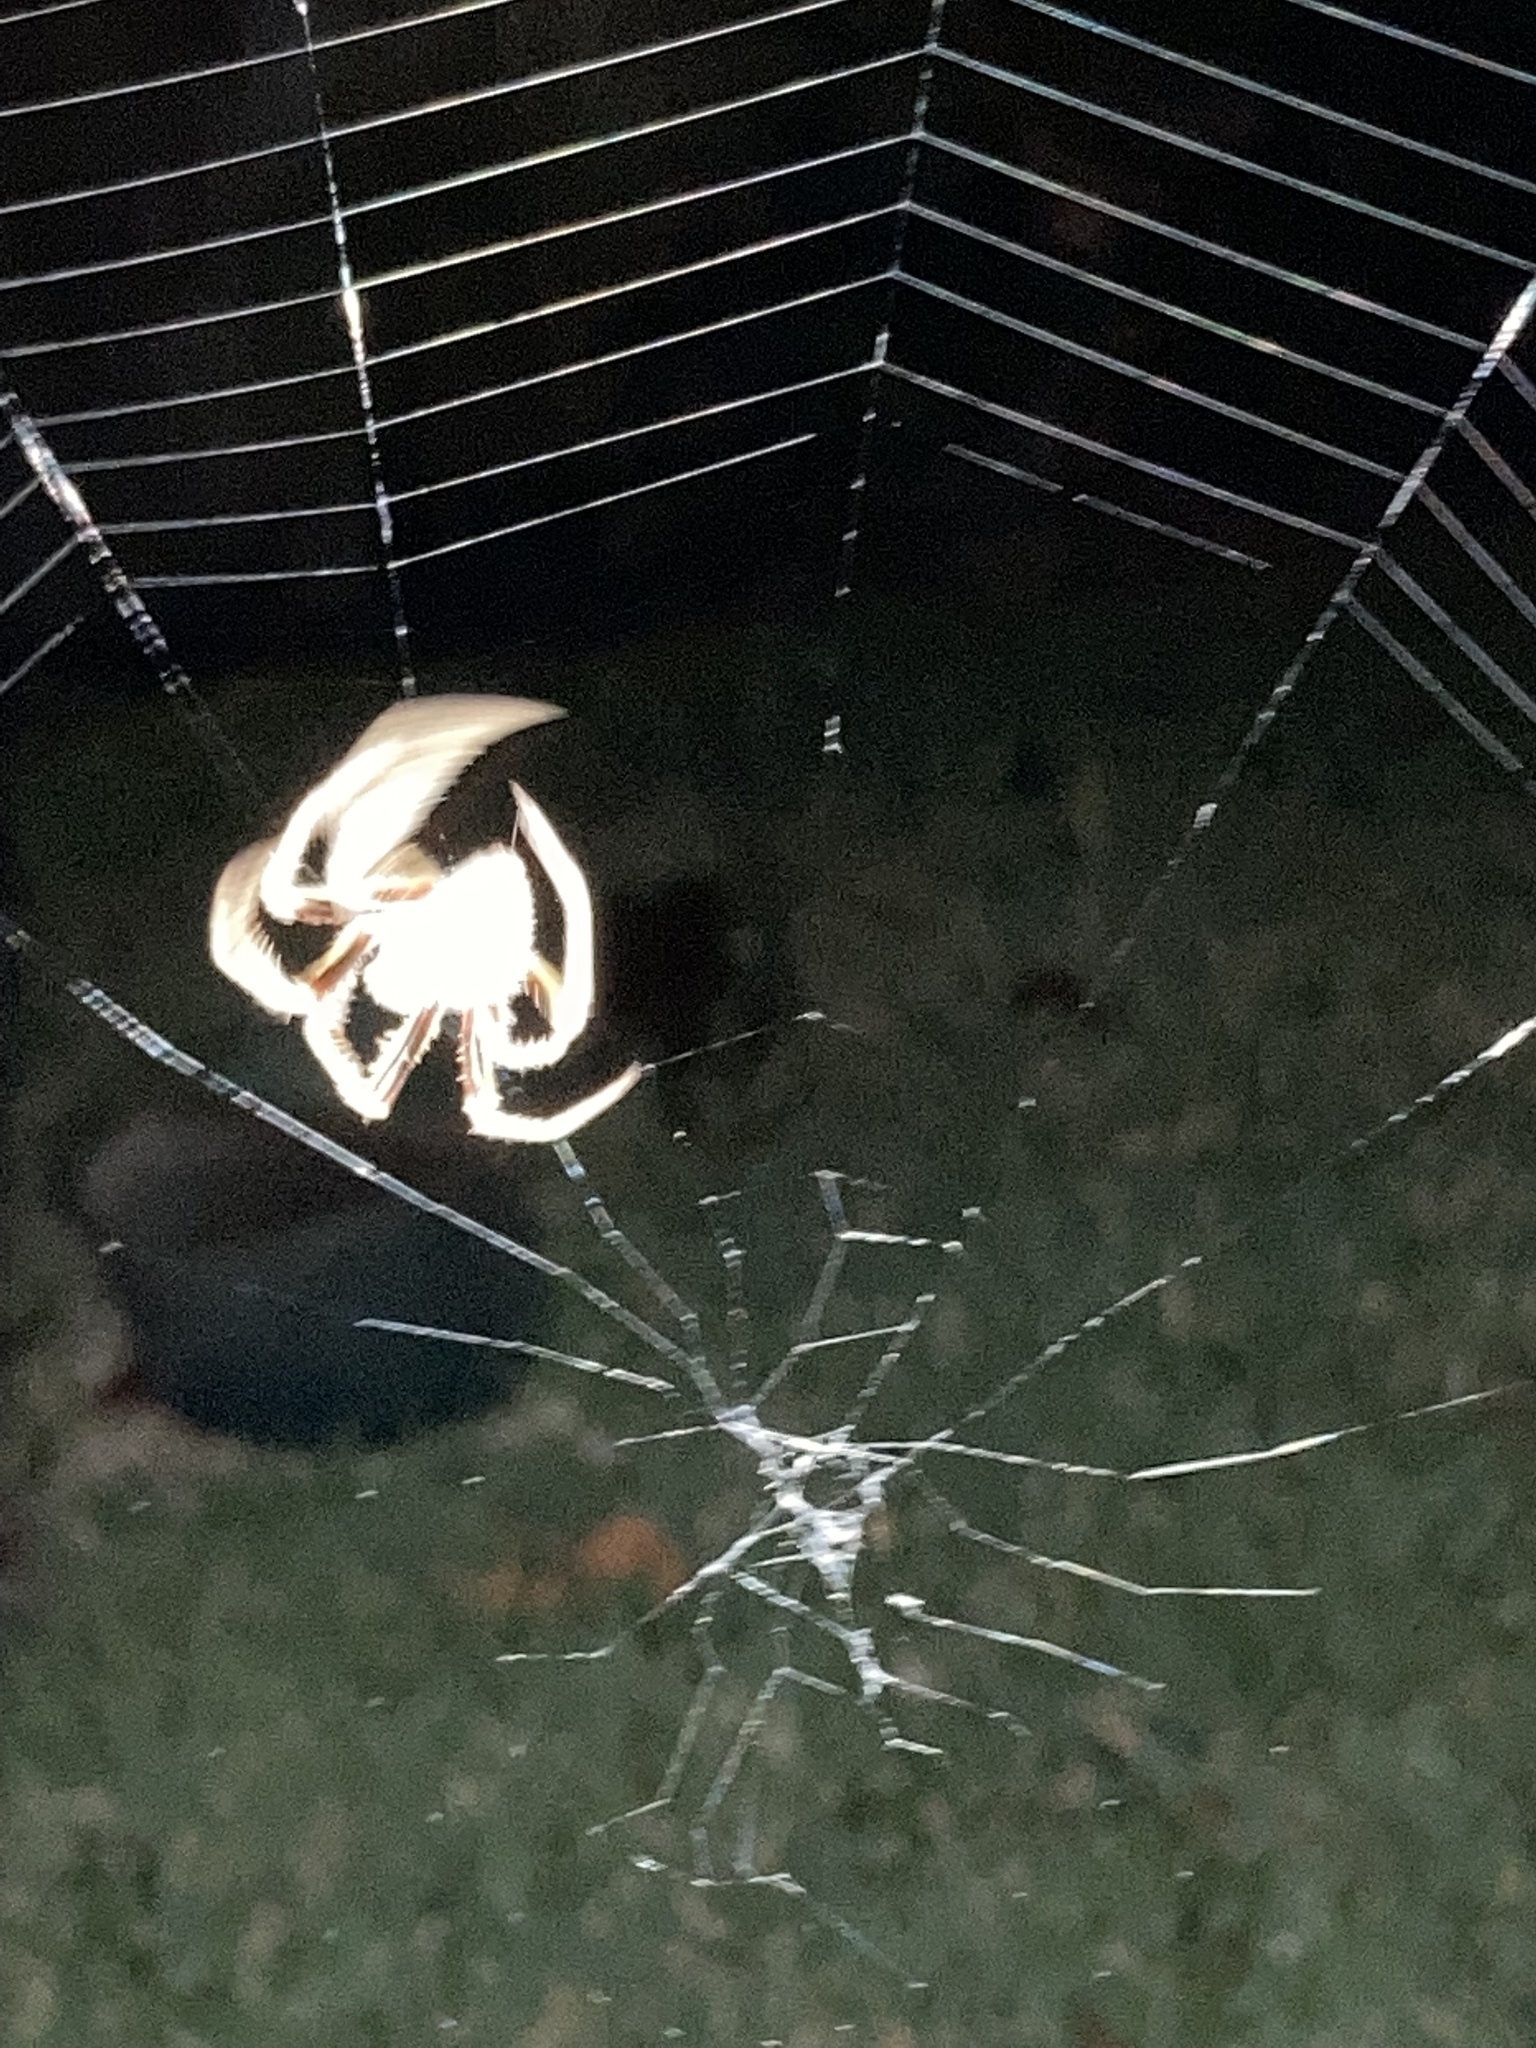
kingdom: Animalia
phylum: Arthropoda
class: Arachnida
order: Araneae
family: Araneidae
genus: Eriophora
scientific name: Eriophora ravilla
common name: Orb weavers
